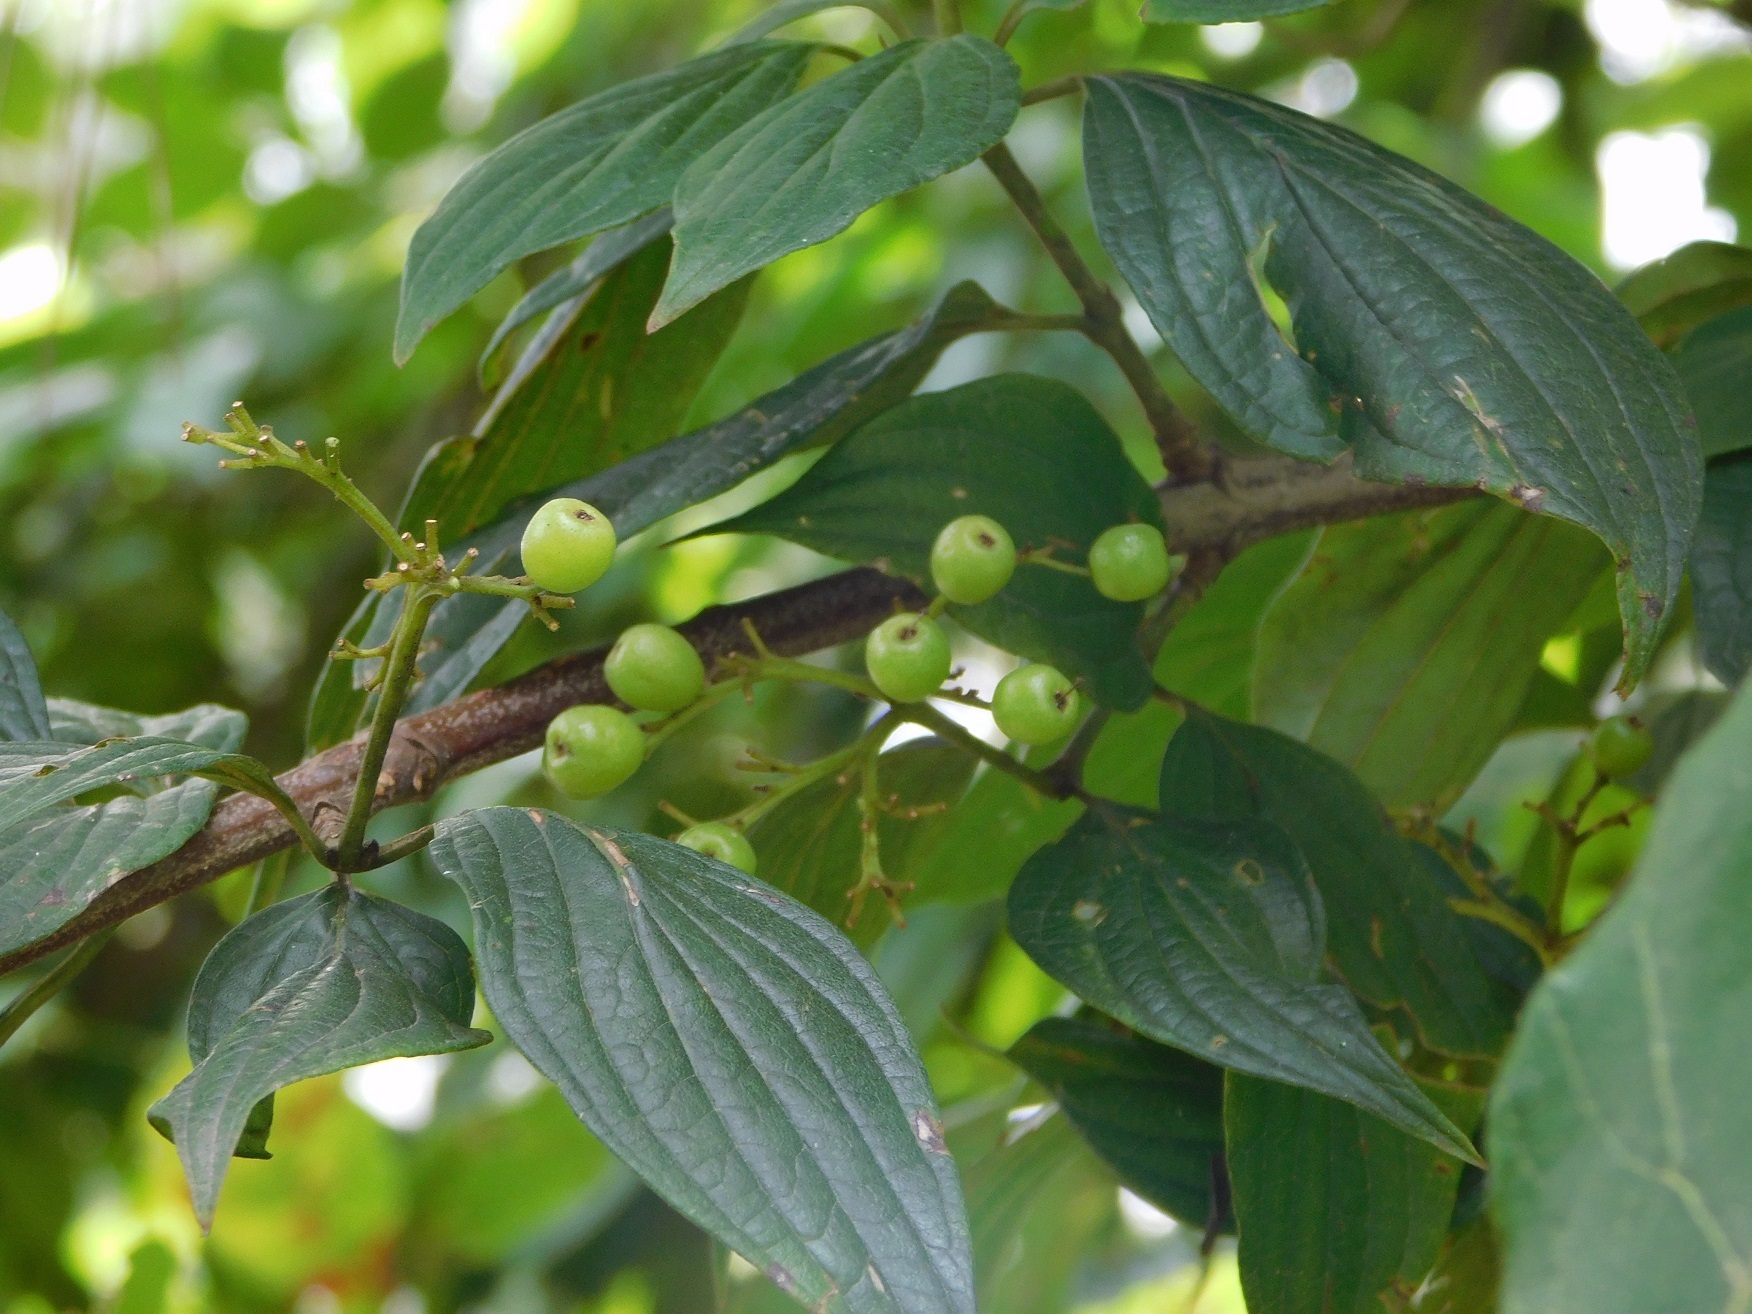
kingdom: Plantae
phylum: Tracheophyta
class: Magnoliopsida
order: Cornales
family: Cornaceae
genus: Cornus
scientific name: Cornus excelsa
